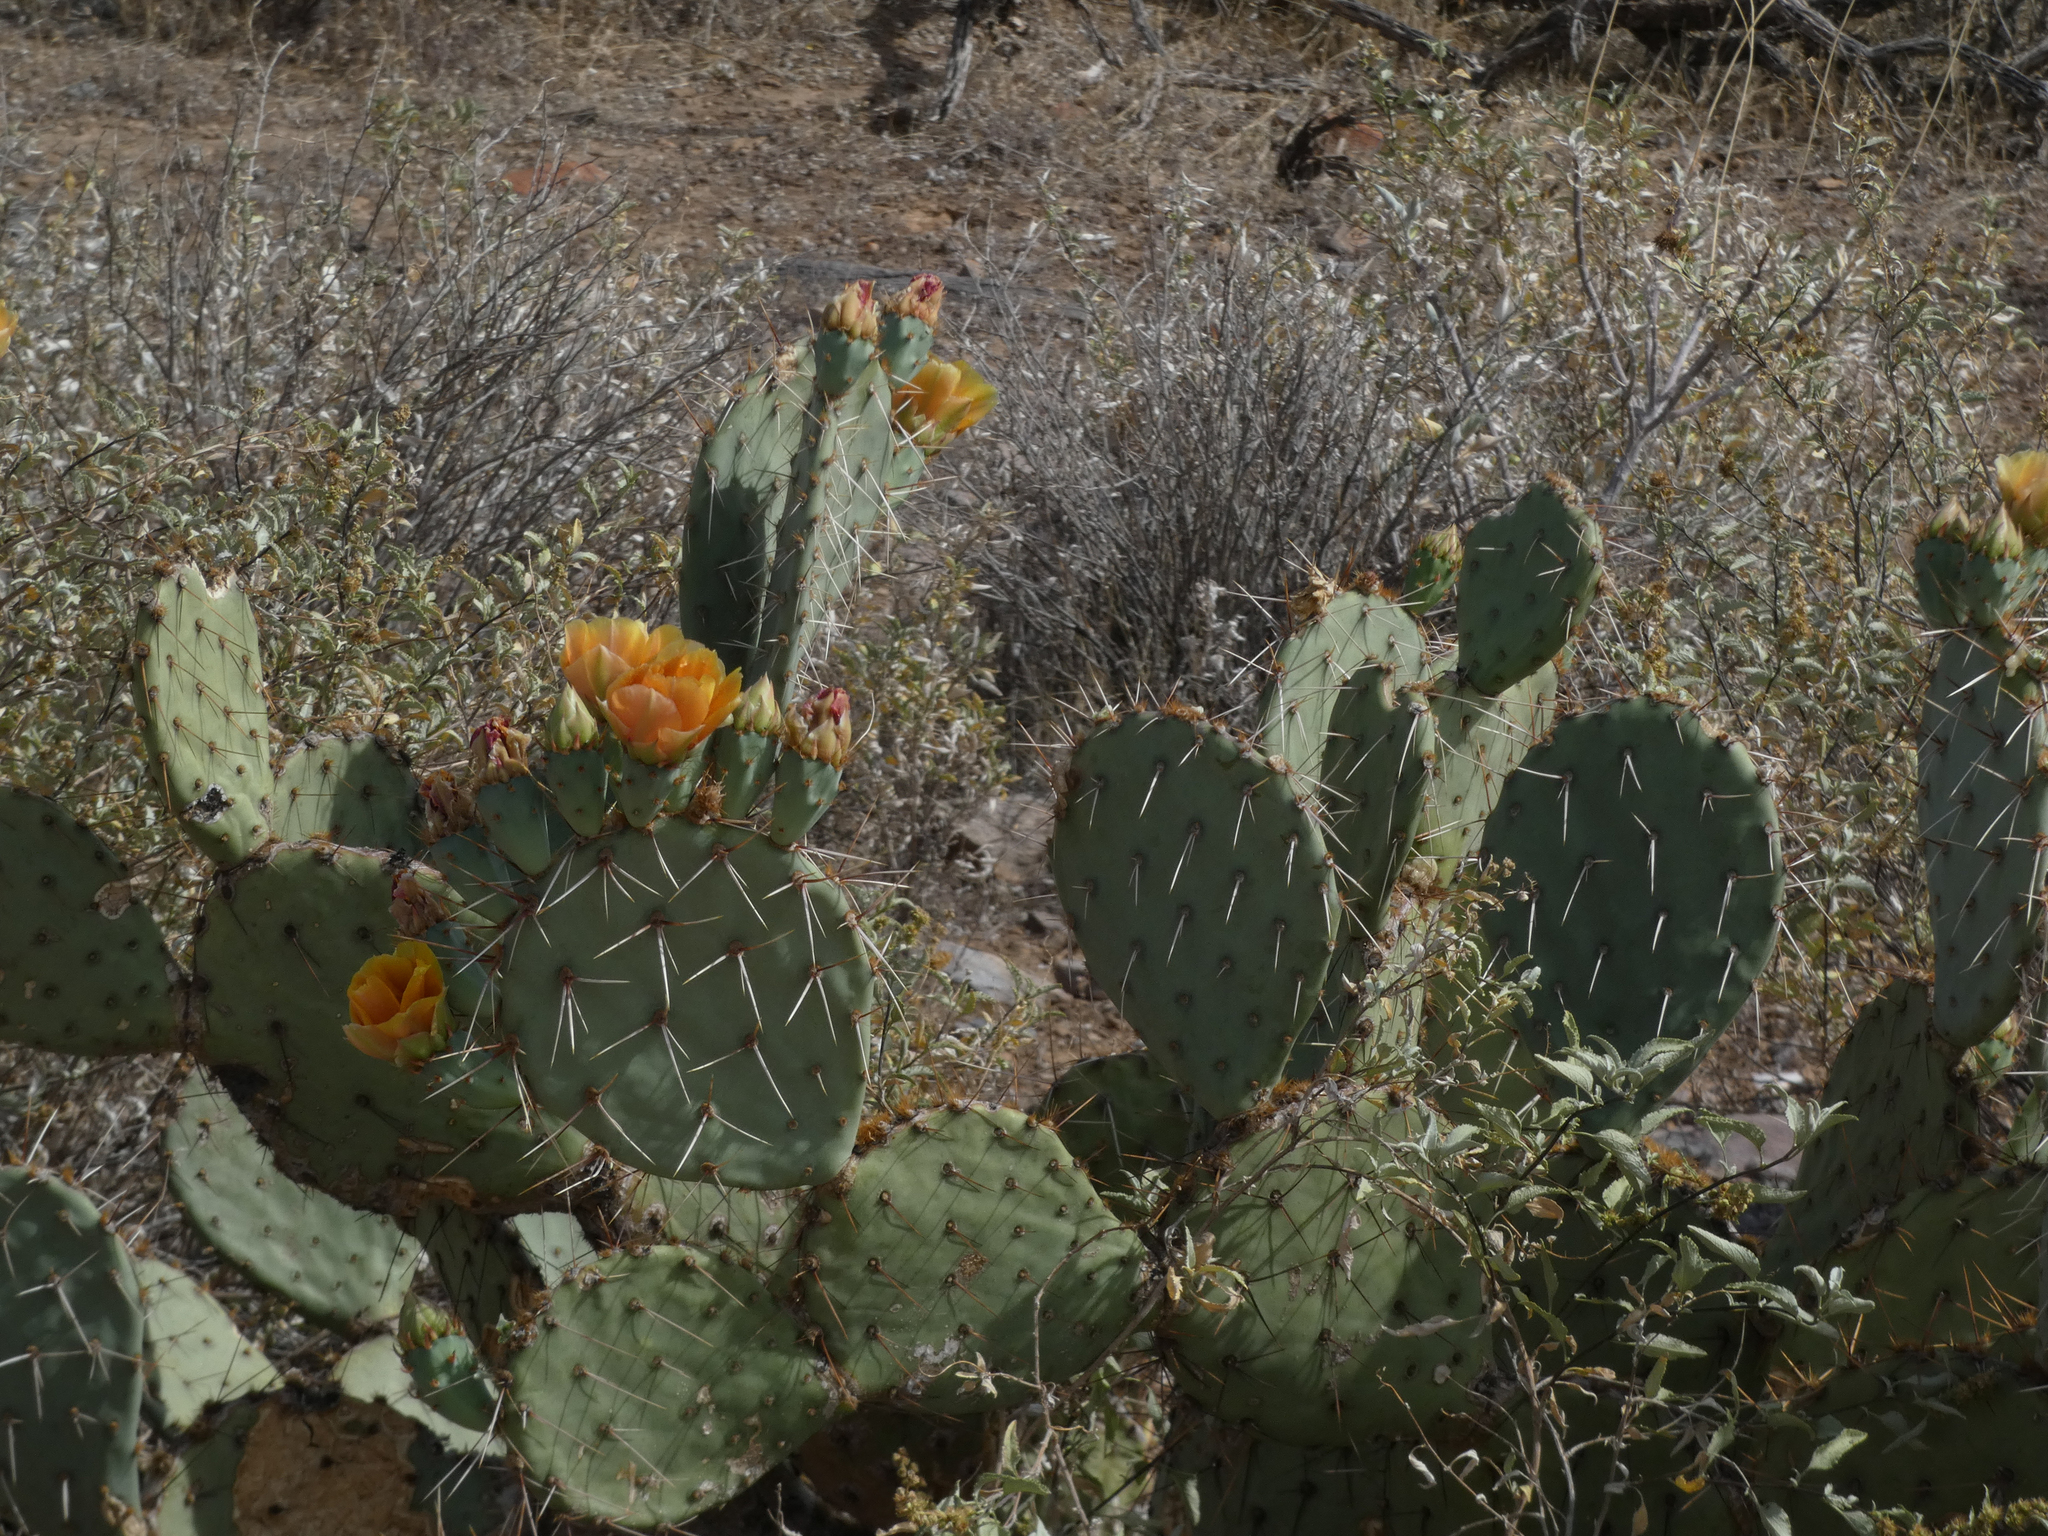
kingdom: Plantae
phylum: Tracheophyta
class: Magnoliopsida
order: Caryophyllales
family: Cactaceae
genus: Opuntia
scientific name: Opuntia engelmannii
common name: Cactus-apple
